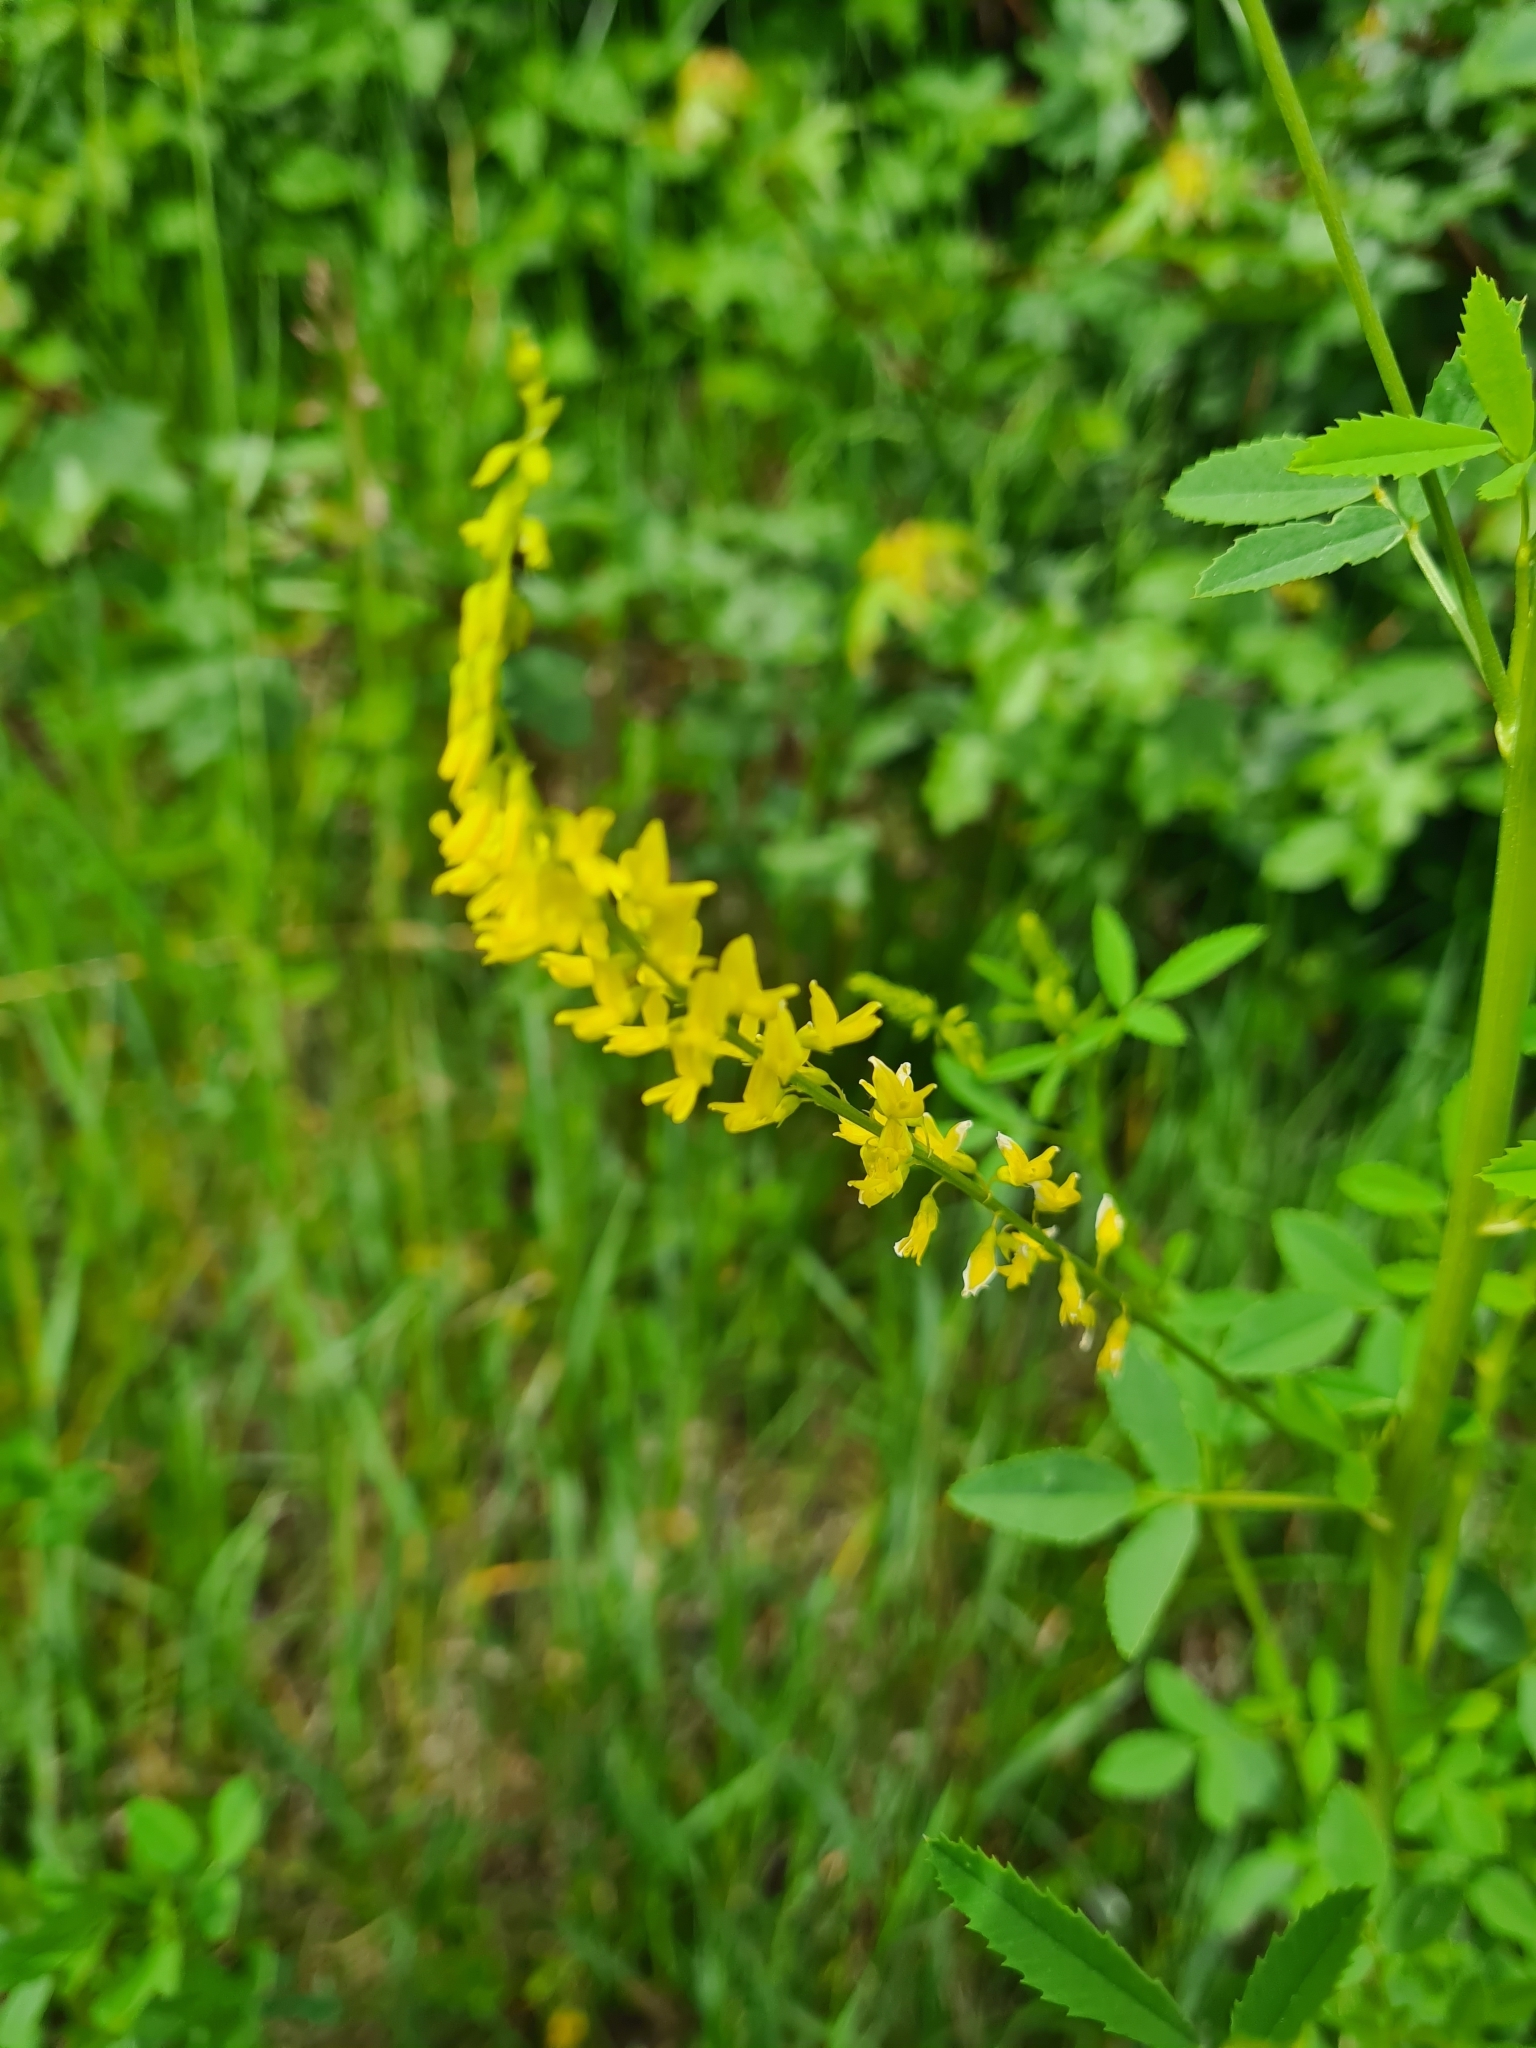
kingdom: Plantae
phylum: Tracheophyta
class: Magnoliopsida
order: Fabales
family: Fabaceae
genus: Melilotus
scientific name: Melilotus officinalis
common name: Sweetclover
